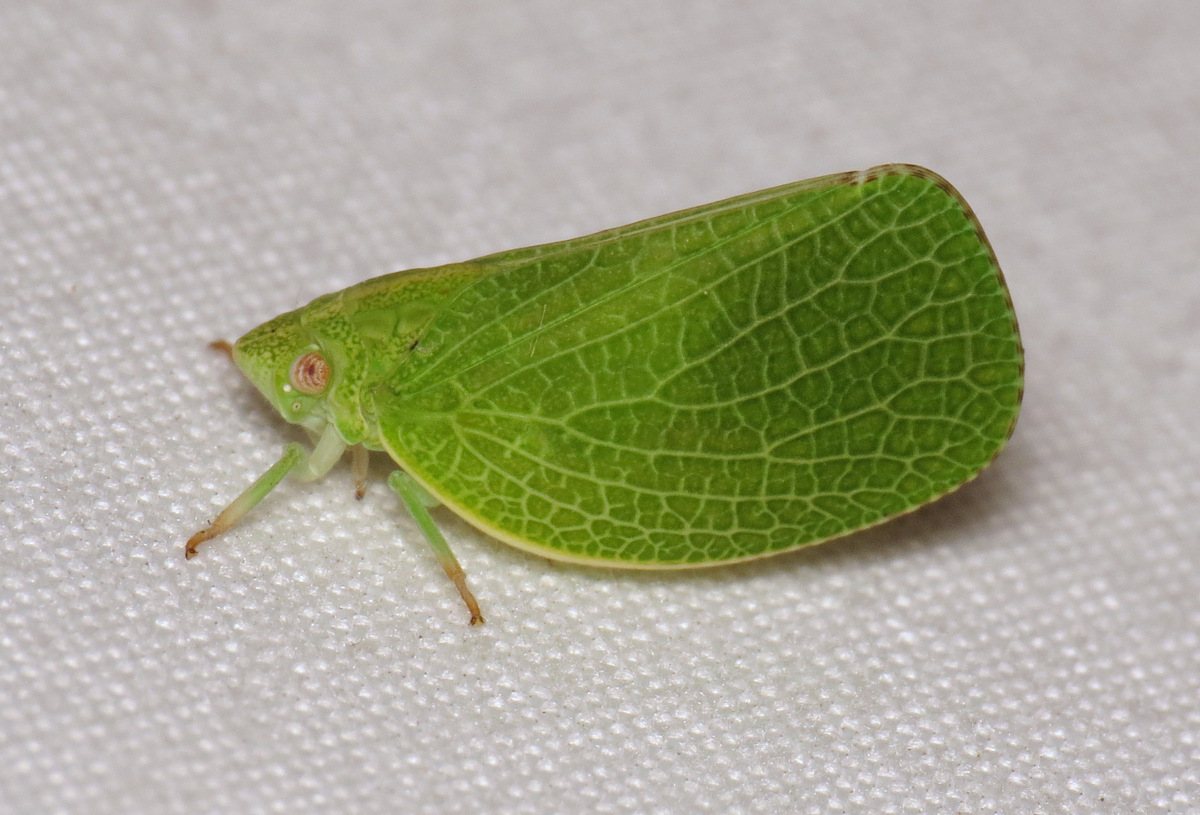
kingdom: Animalia
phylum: Arthropoda
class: Insecta
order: Hemiptera
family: Acanaloniidae
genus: Acanalonia
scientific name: Acanalonia conica
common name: Green cone-headed planthopper
